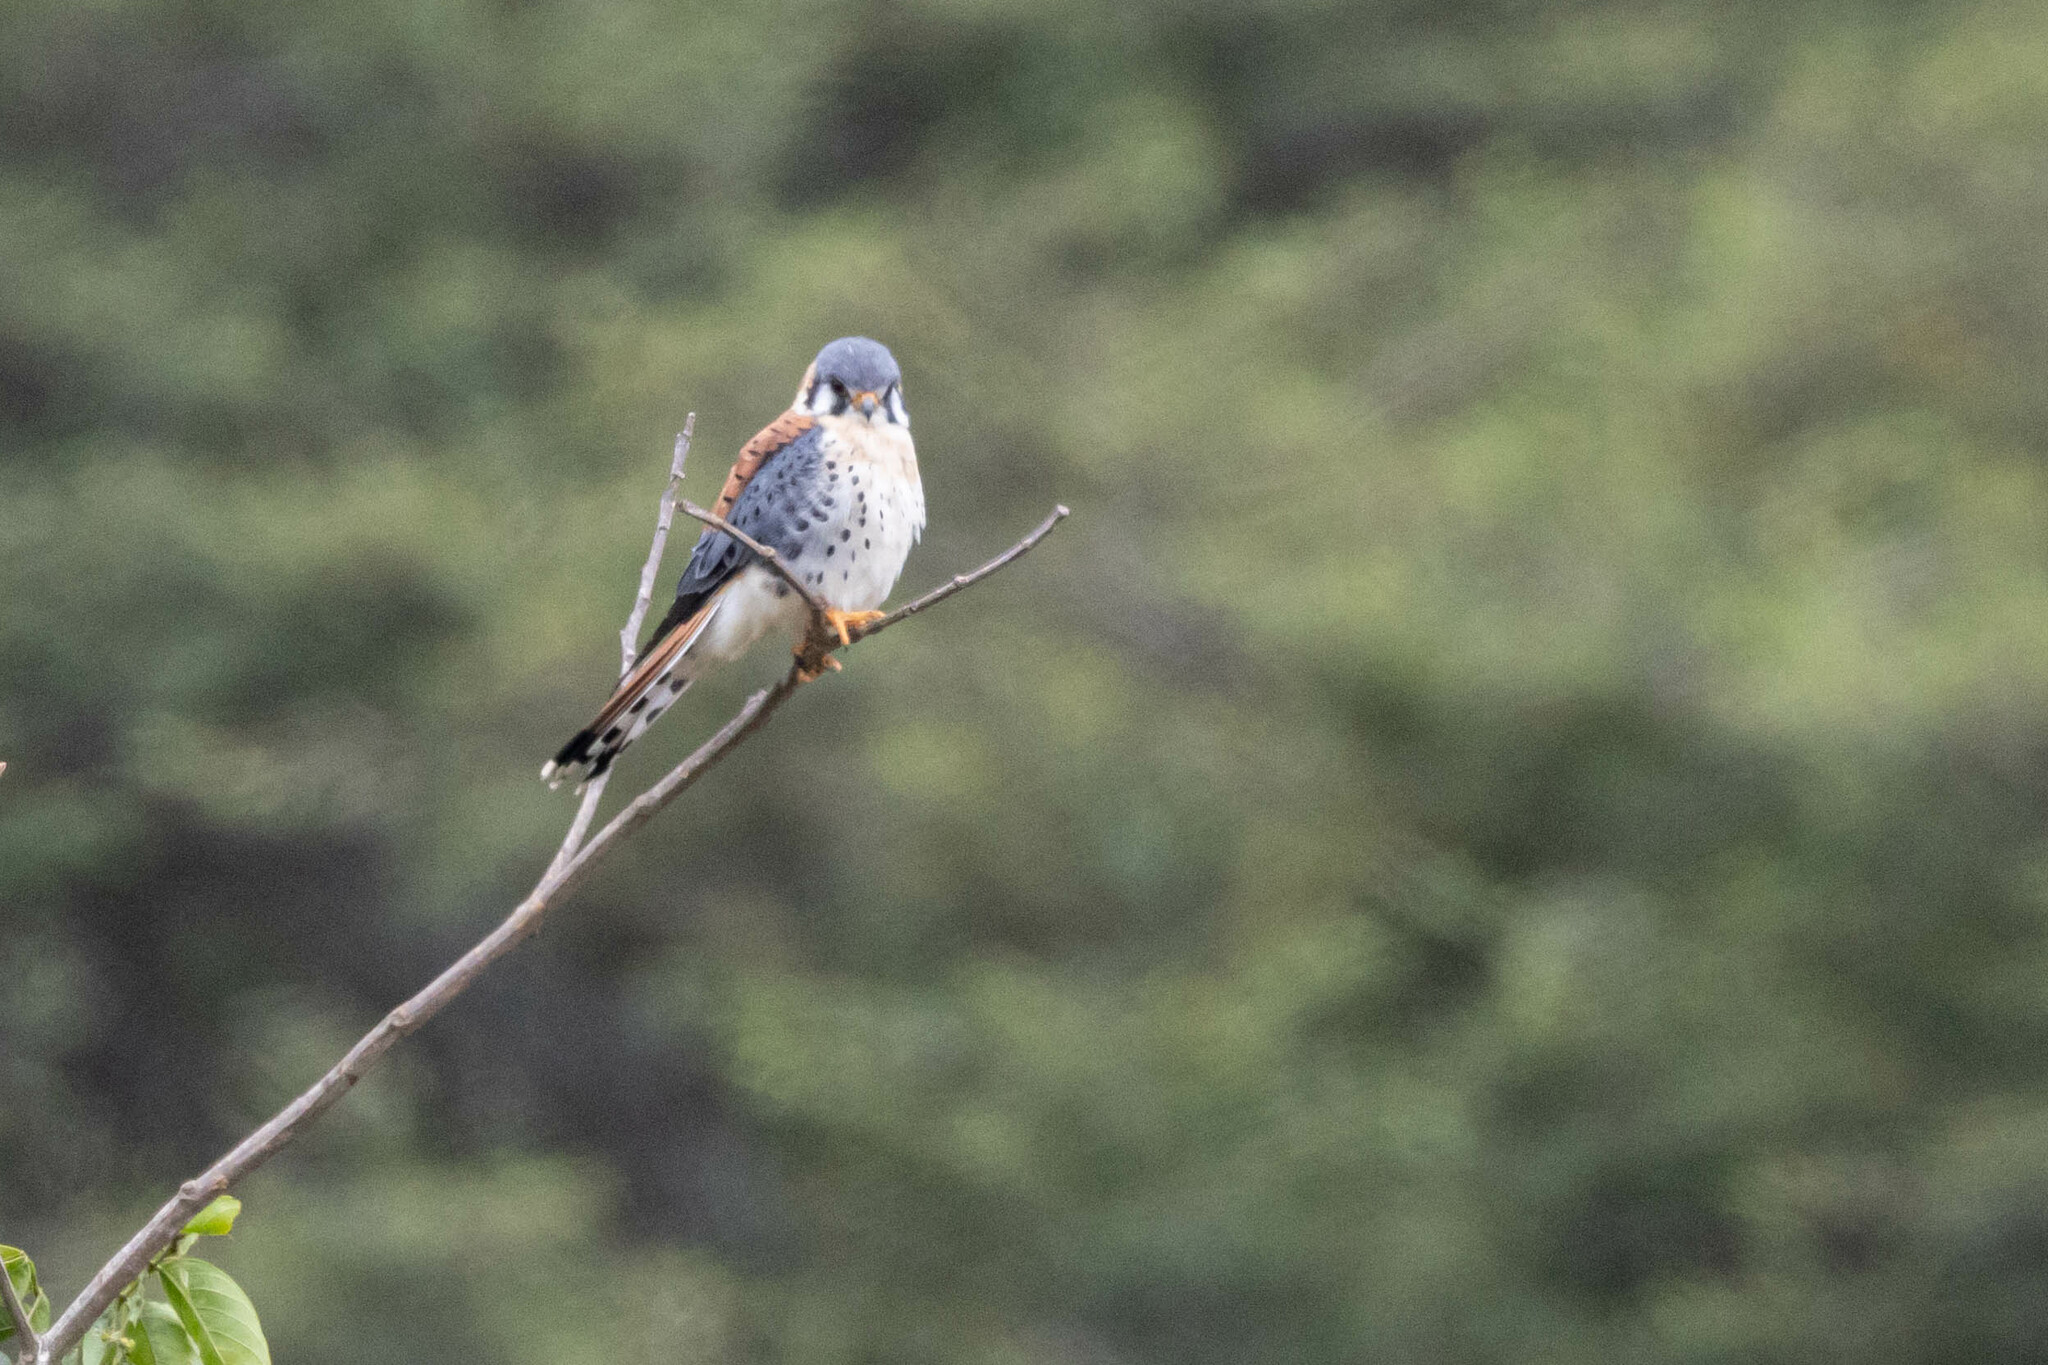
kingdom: Animalia
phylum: Chordata
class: Aves
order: Falconiformes
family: Falconidae
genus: Falco
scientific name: Falco sparverius
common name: American kestrel
